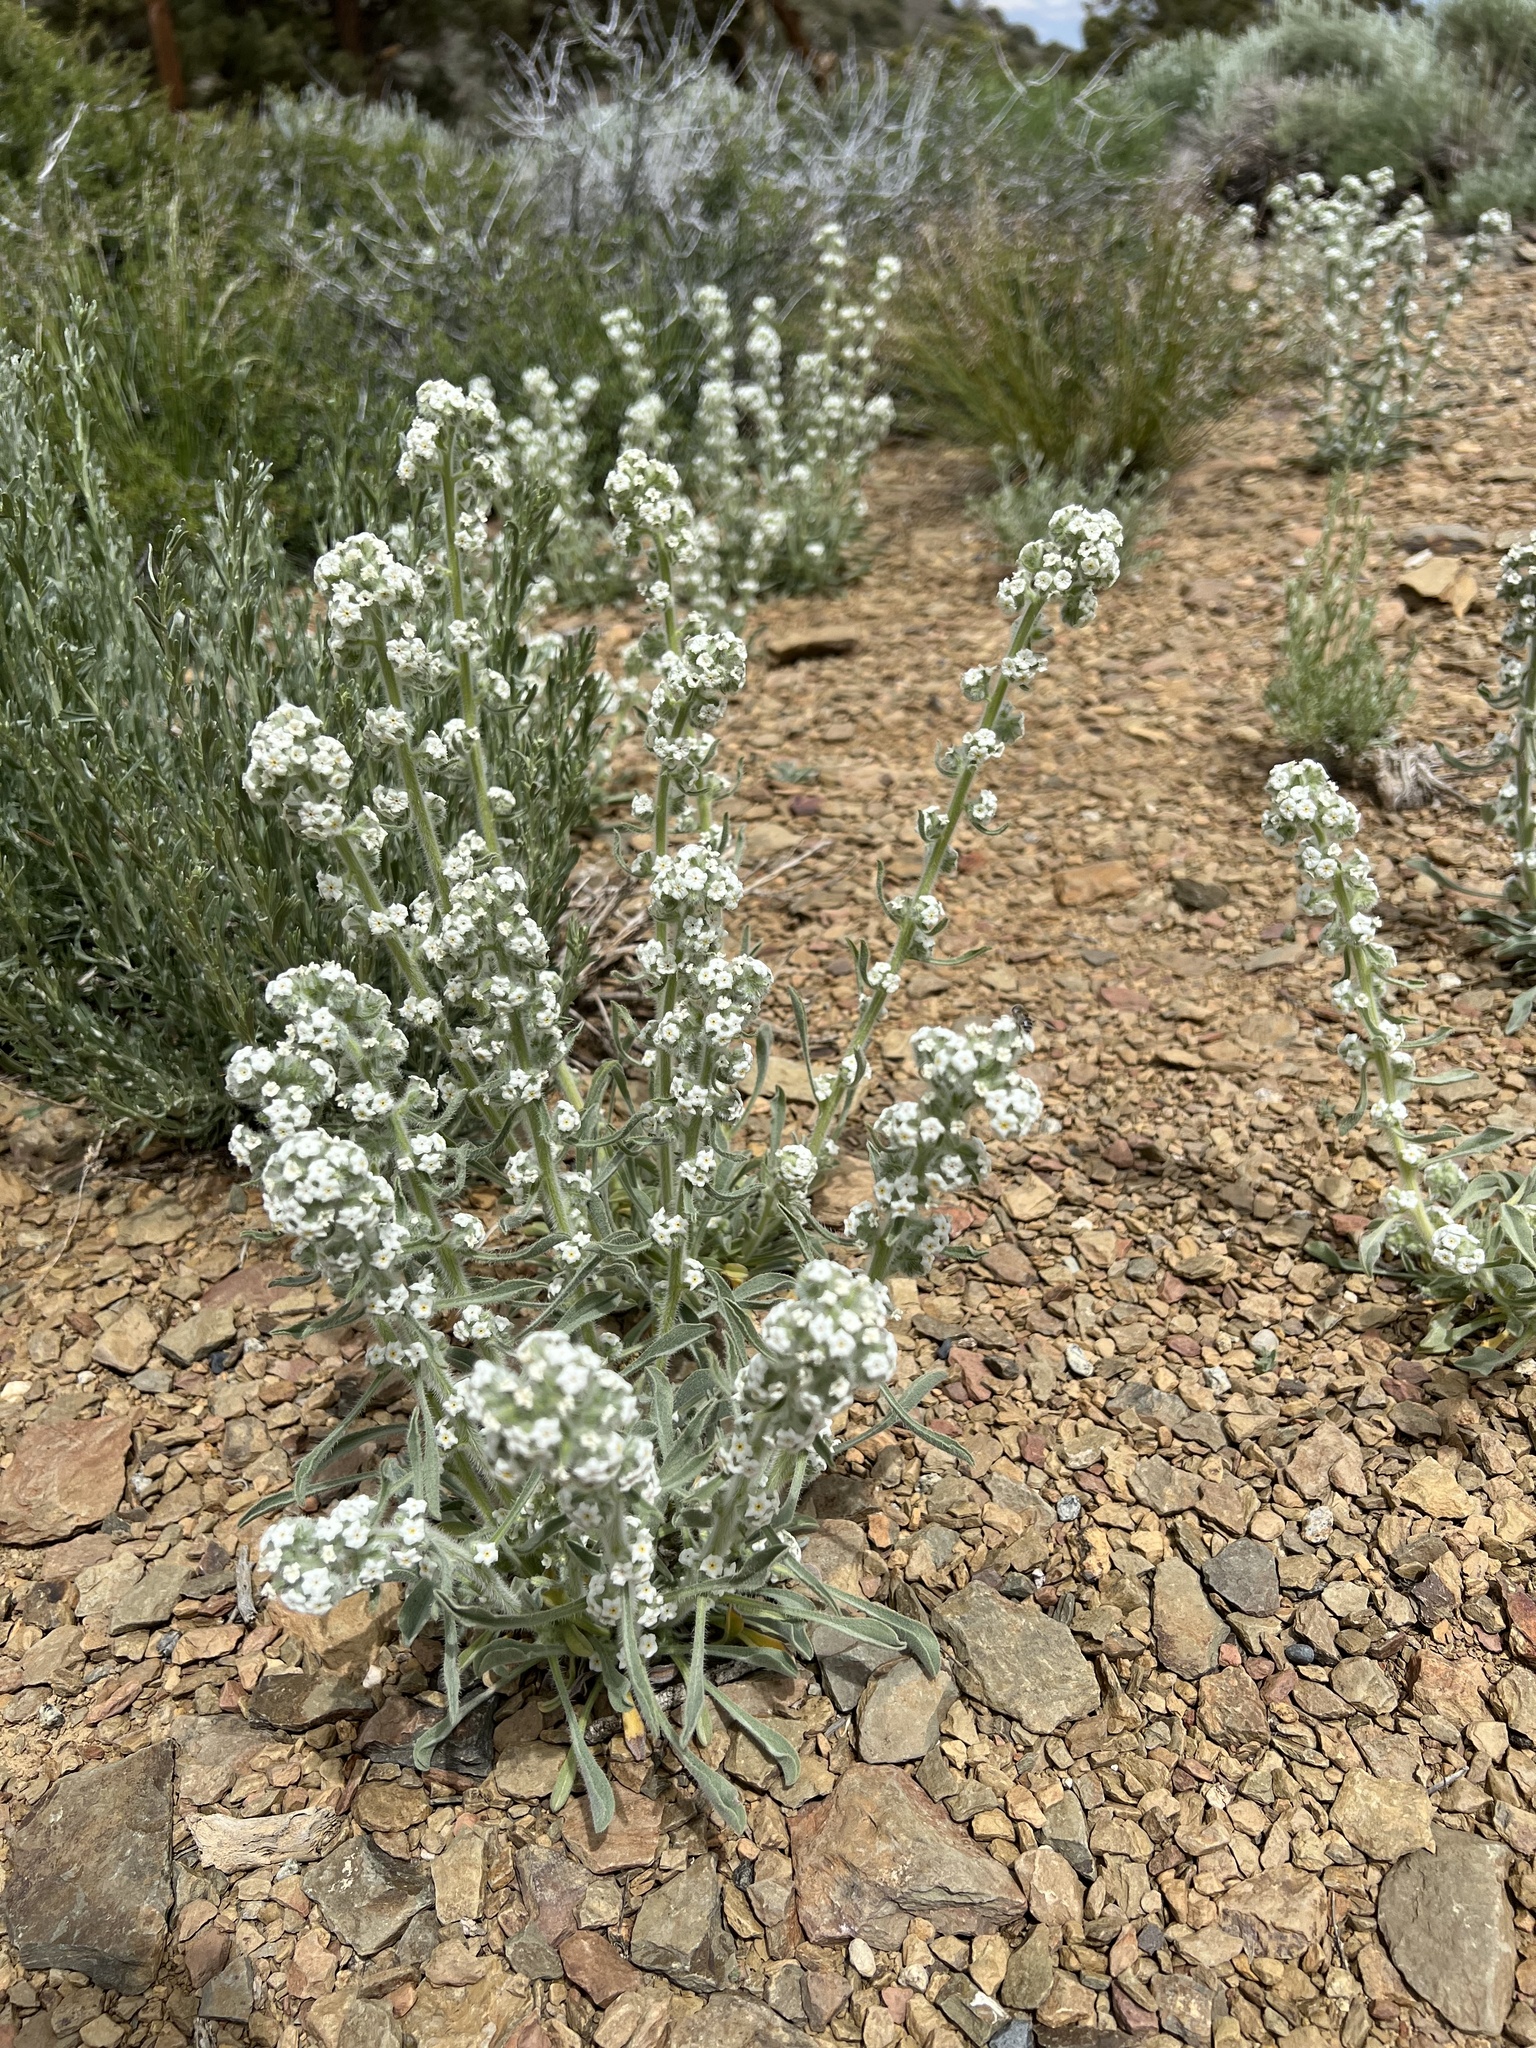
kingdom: Plantae
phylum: Tracheophyta
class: Magnoliopsida
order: Boraginales
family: Boraginaceae
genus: Oreocarya
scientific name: Oreocarya hoffmannii
